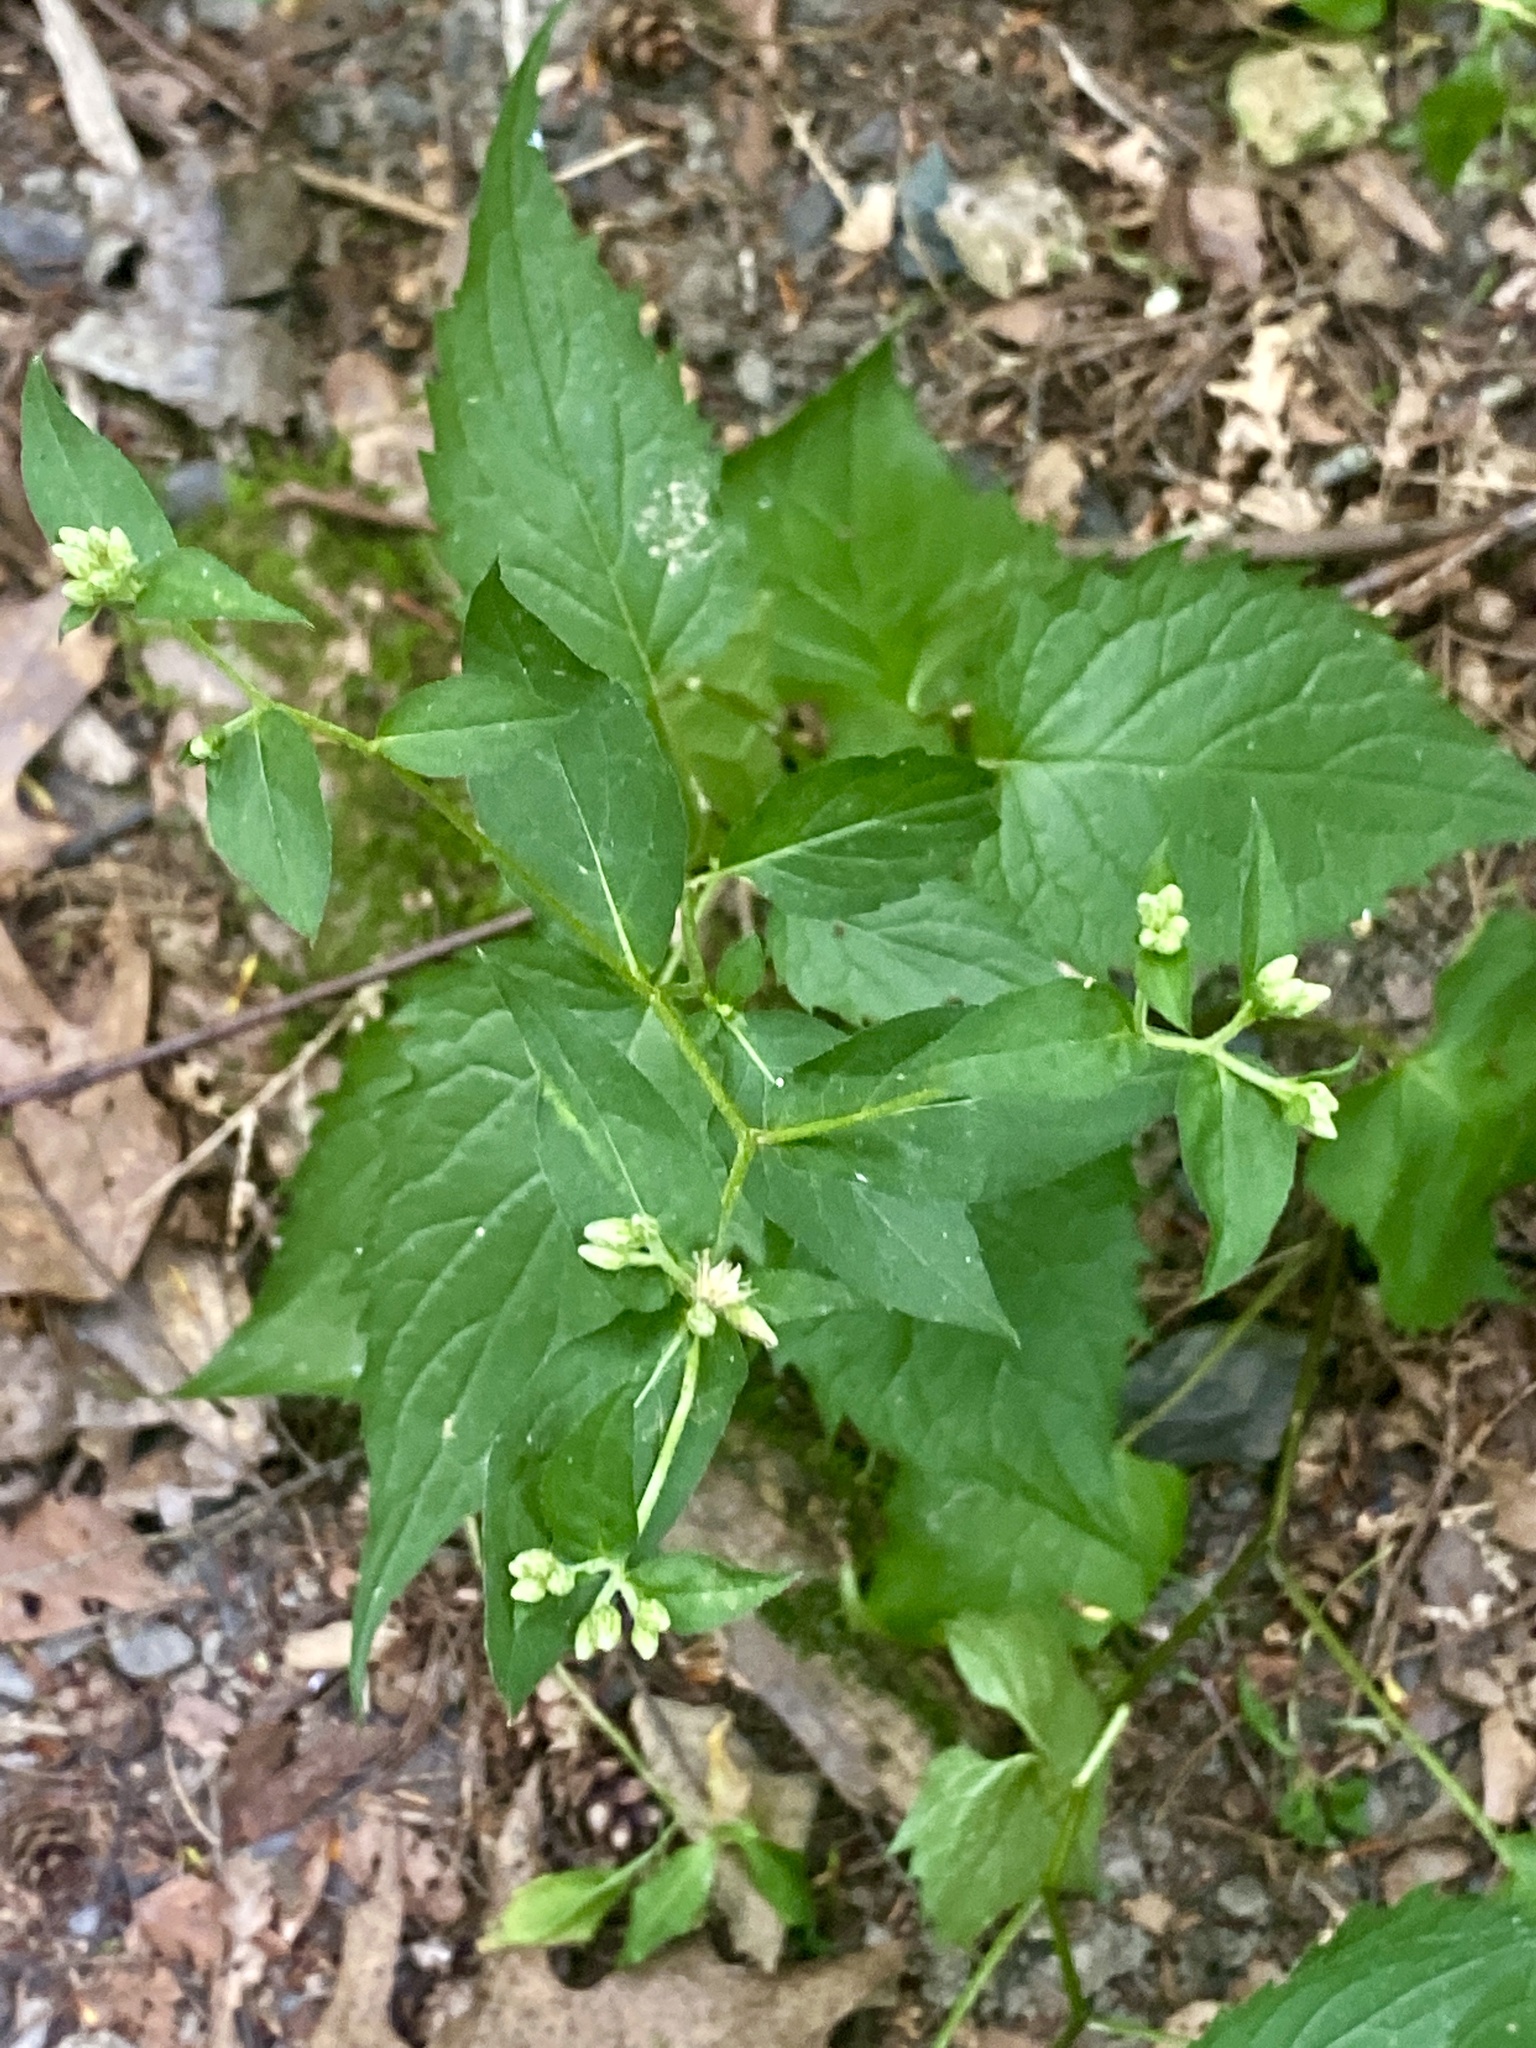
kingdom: Plantae
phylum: Tracheophyta
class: Magnoliopsida
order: Asterales
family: Asteraceae
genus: Eurybia
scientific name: Eurybia divaricata
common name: White wood aster
